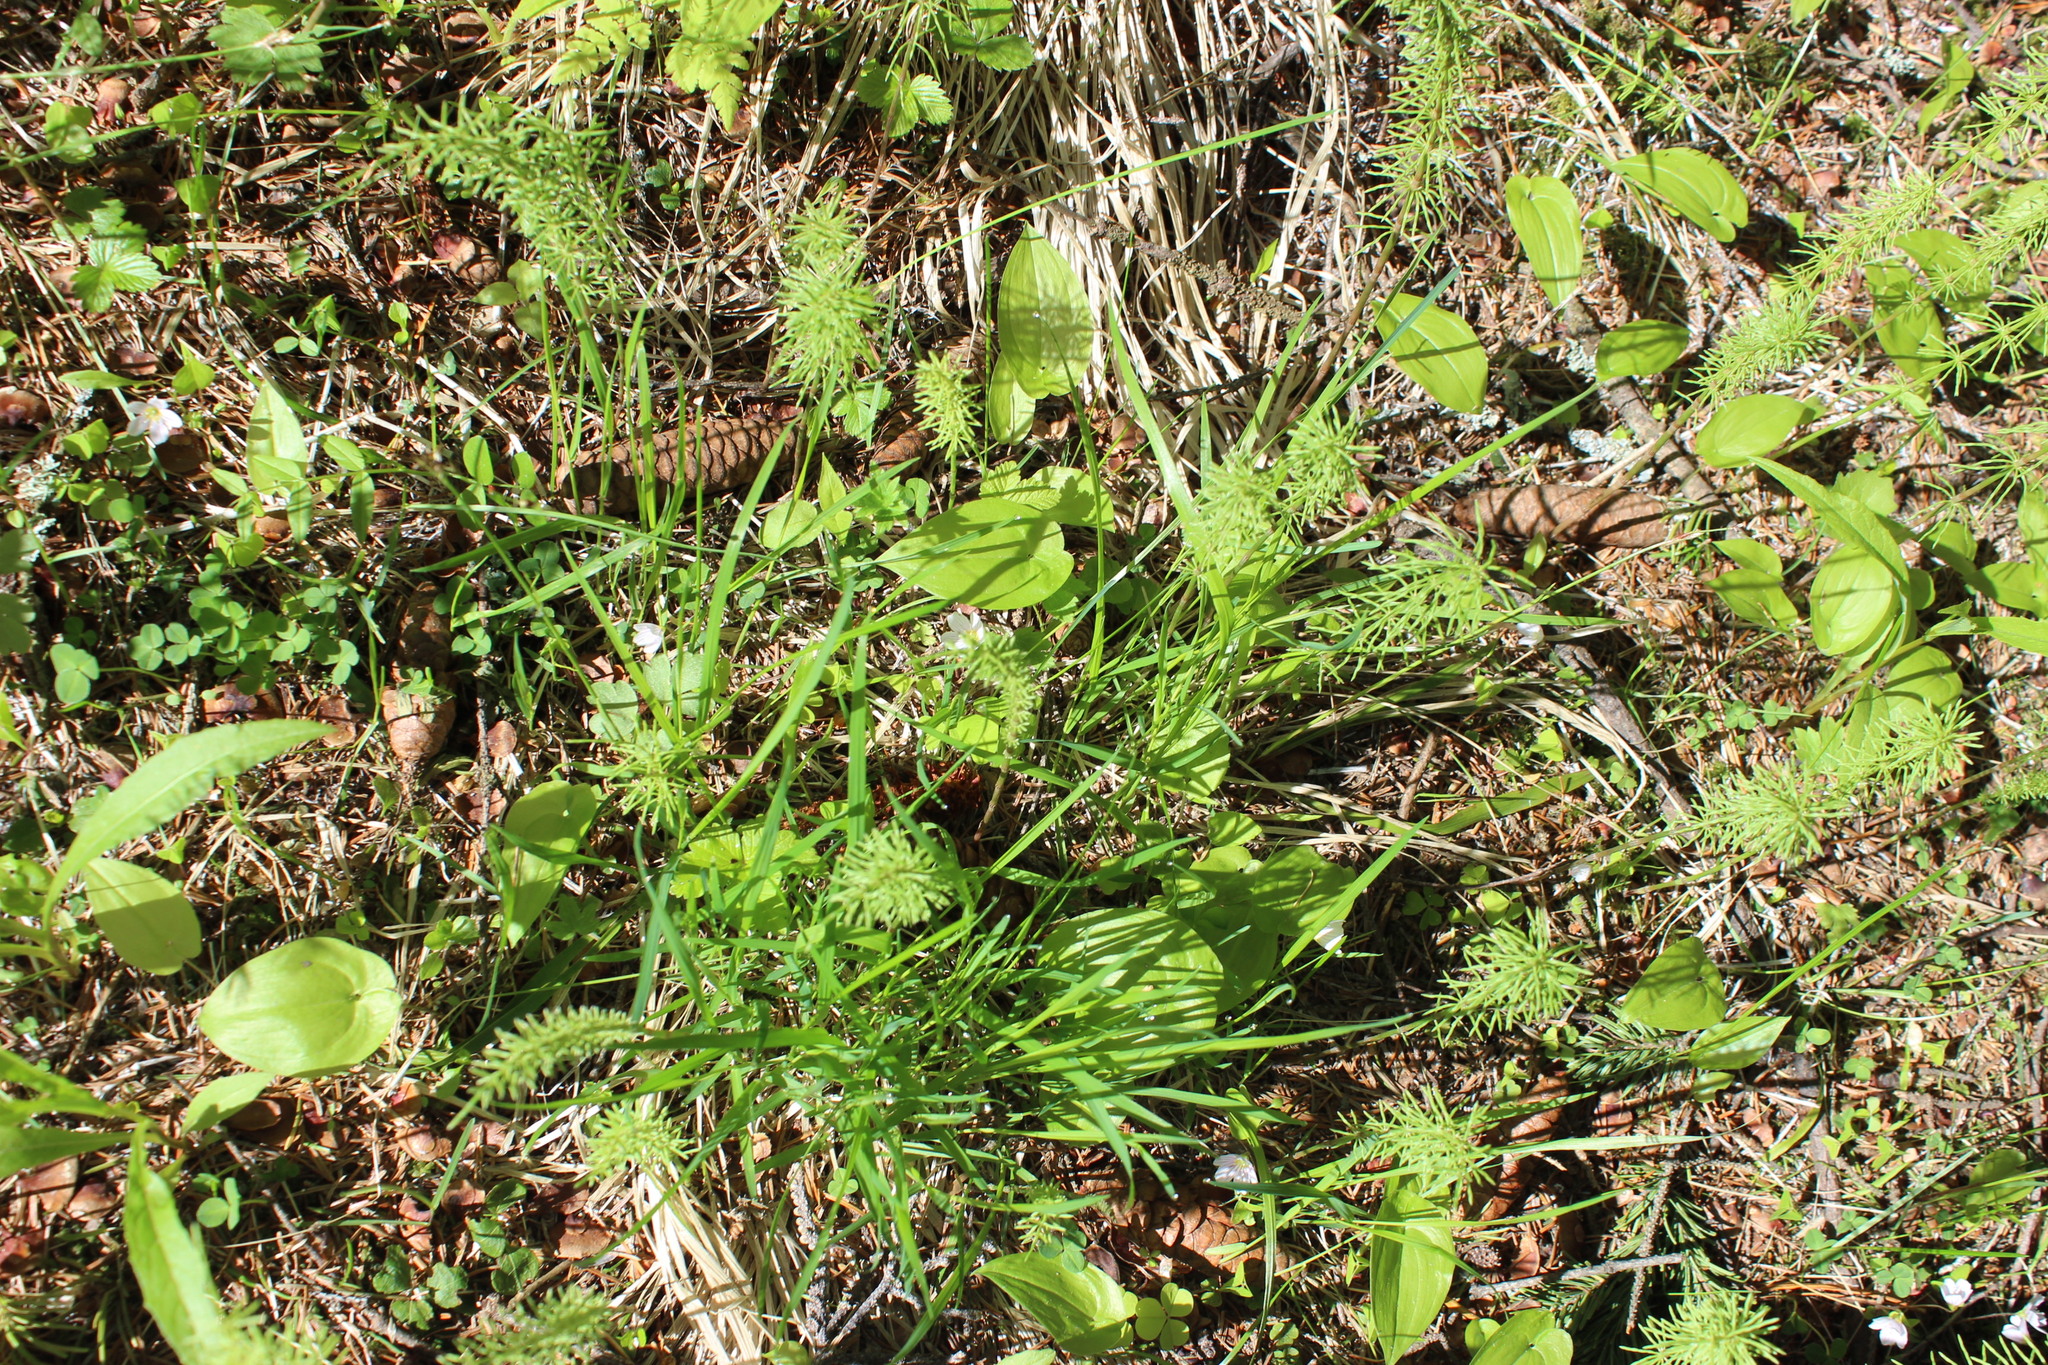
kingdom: Plantae
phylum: Tracheophyta
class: Polypodiopsida
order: Equisetales
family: Equisetaceae
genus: Equisetum
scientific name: Equisetum pratense
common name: Meadow horsetail
